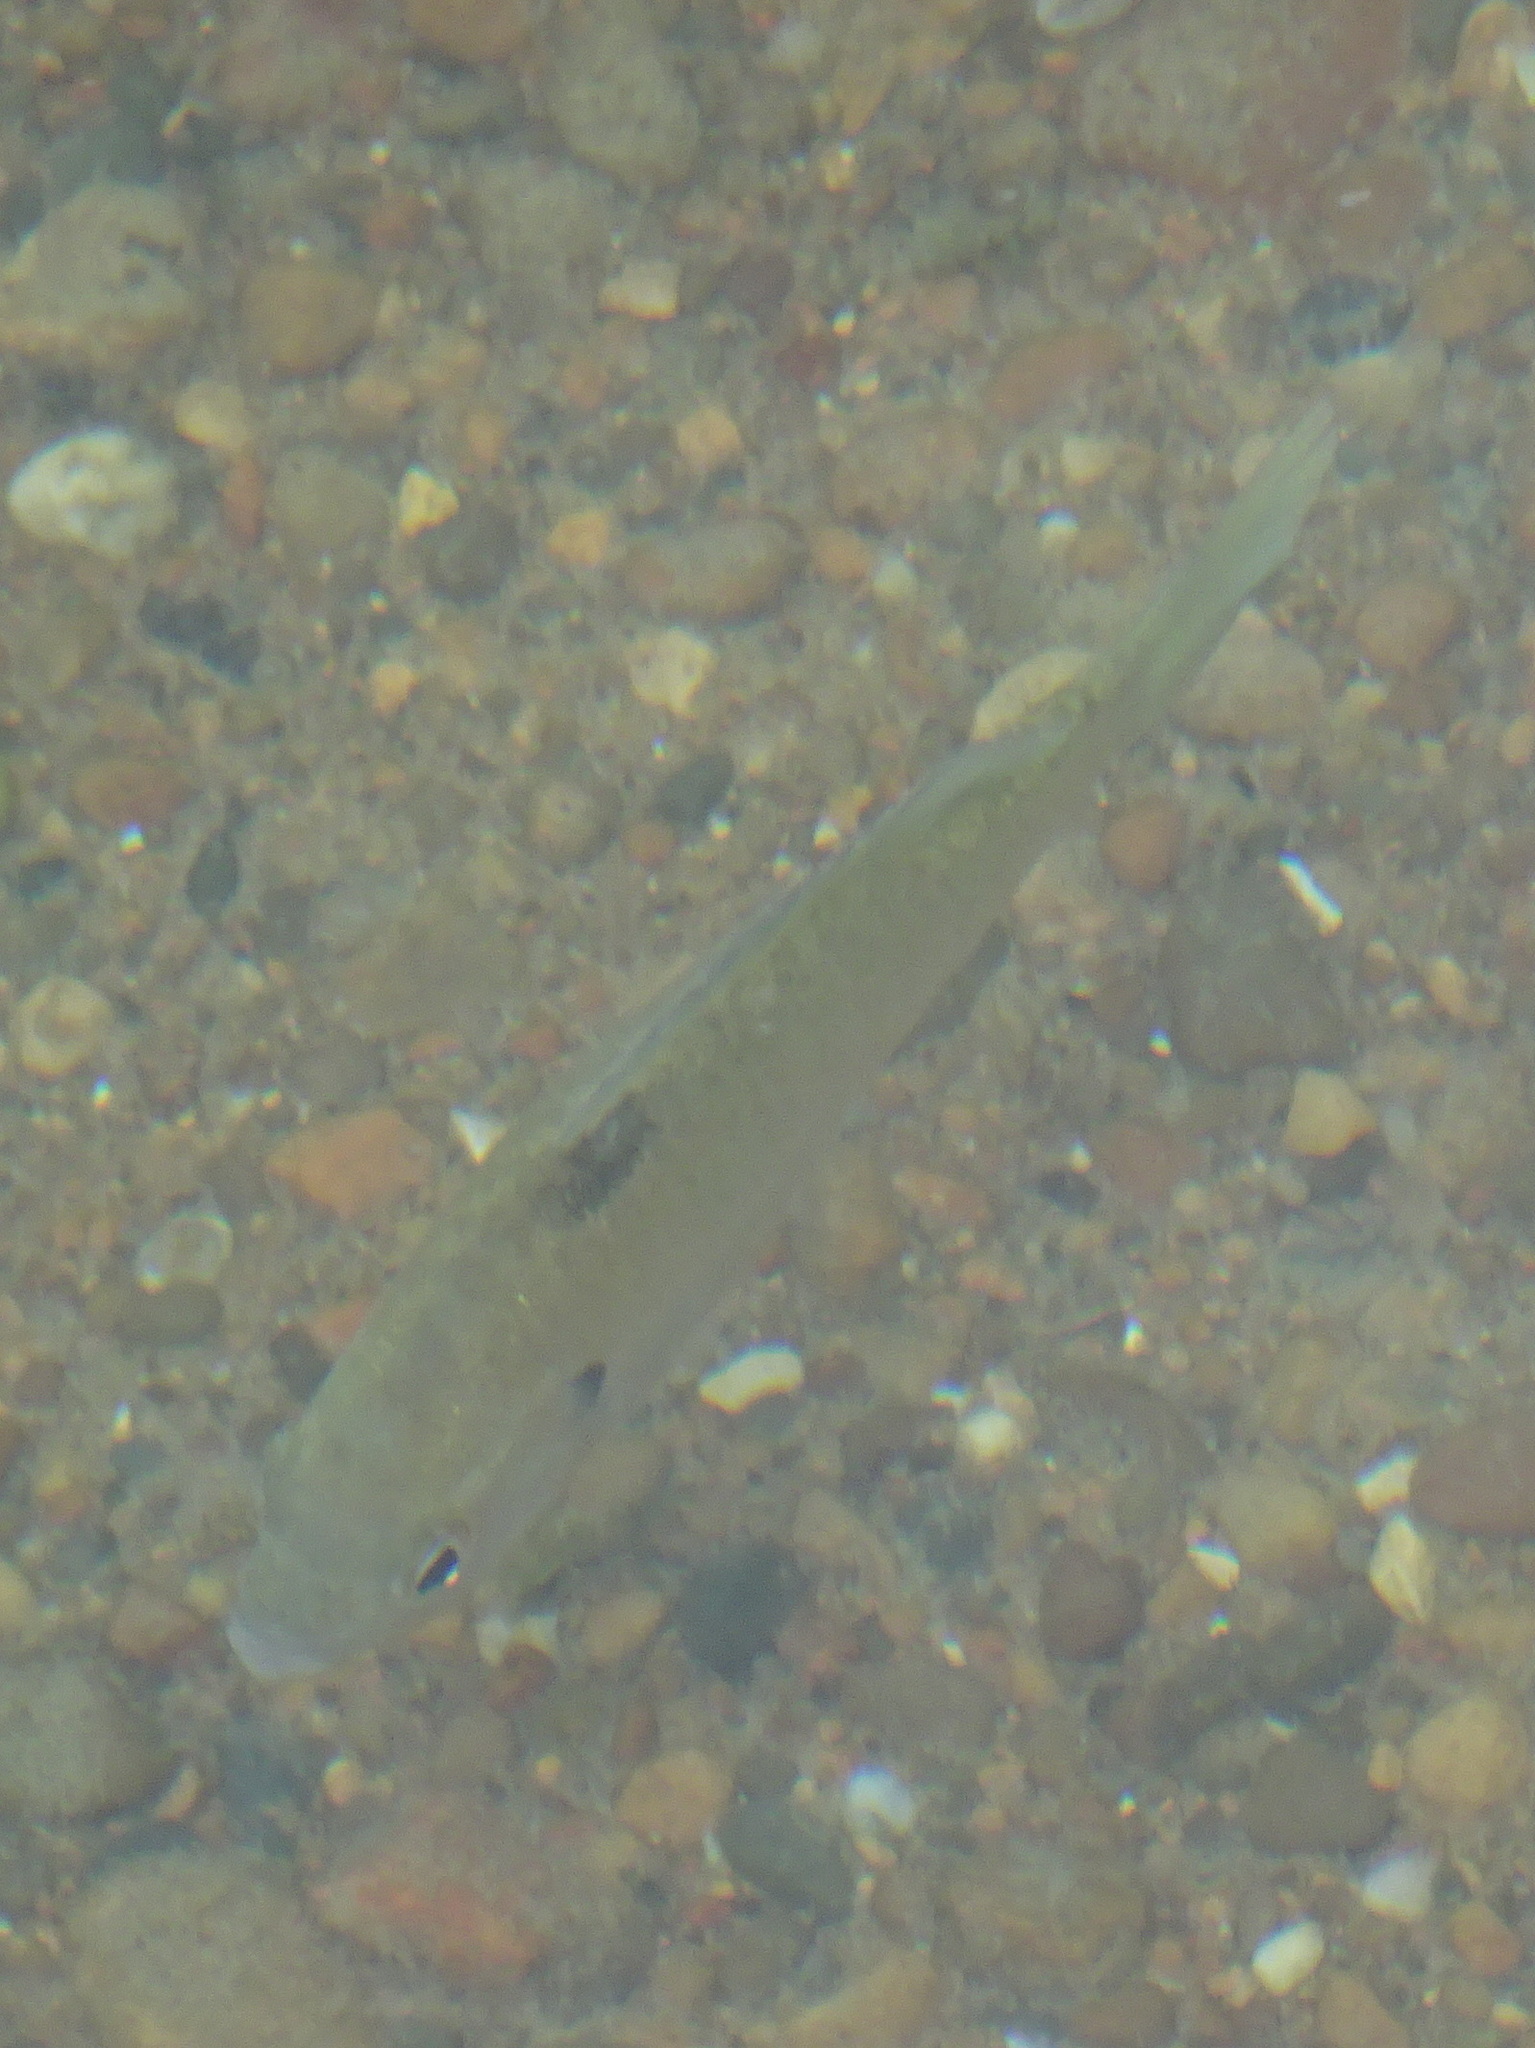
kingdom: Animalia
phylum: Chordata
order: Perciformes
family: Centrarchidae
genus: Lepomis
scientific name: Lepomis macrochirus
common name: Bluegill
